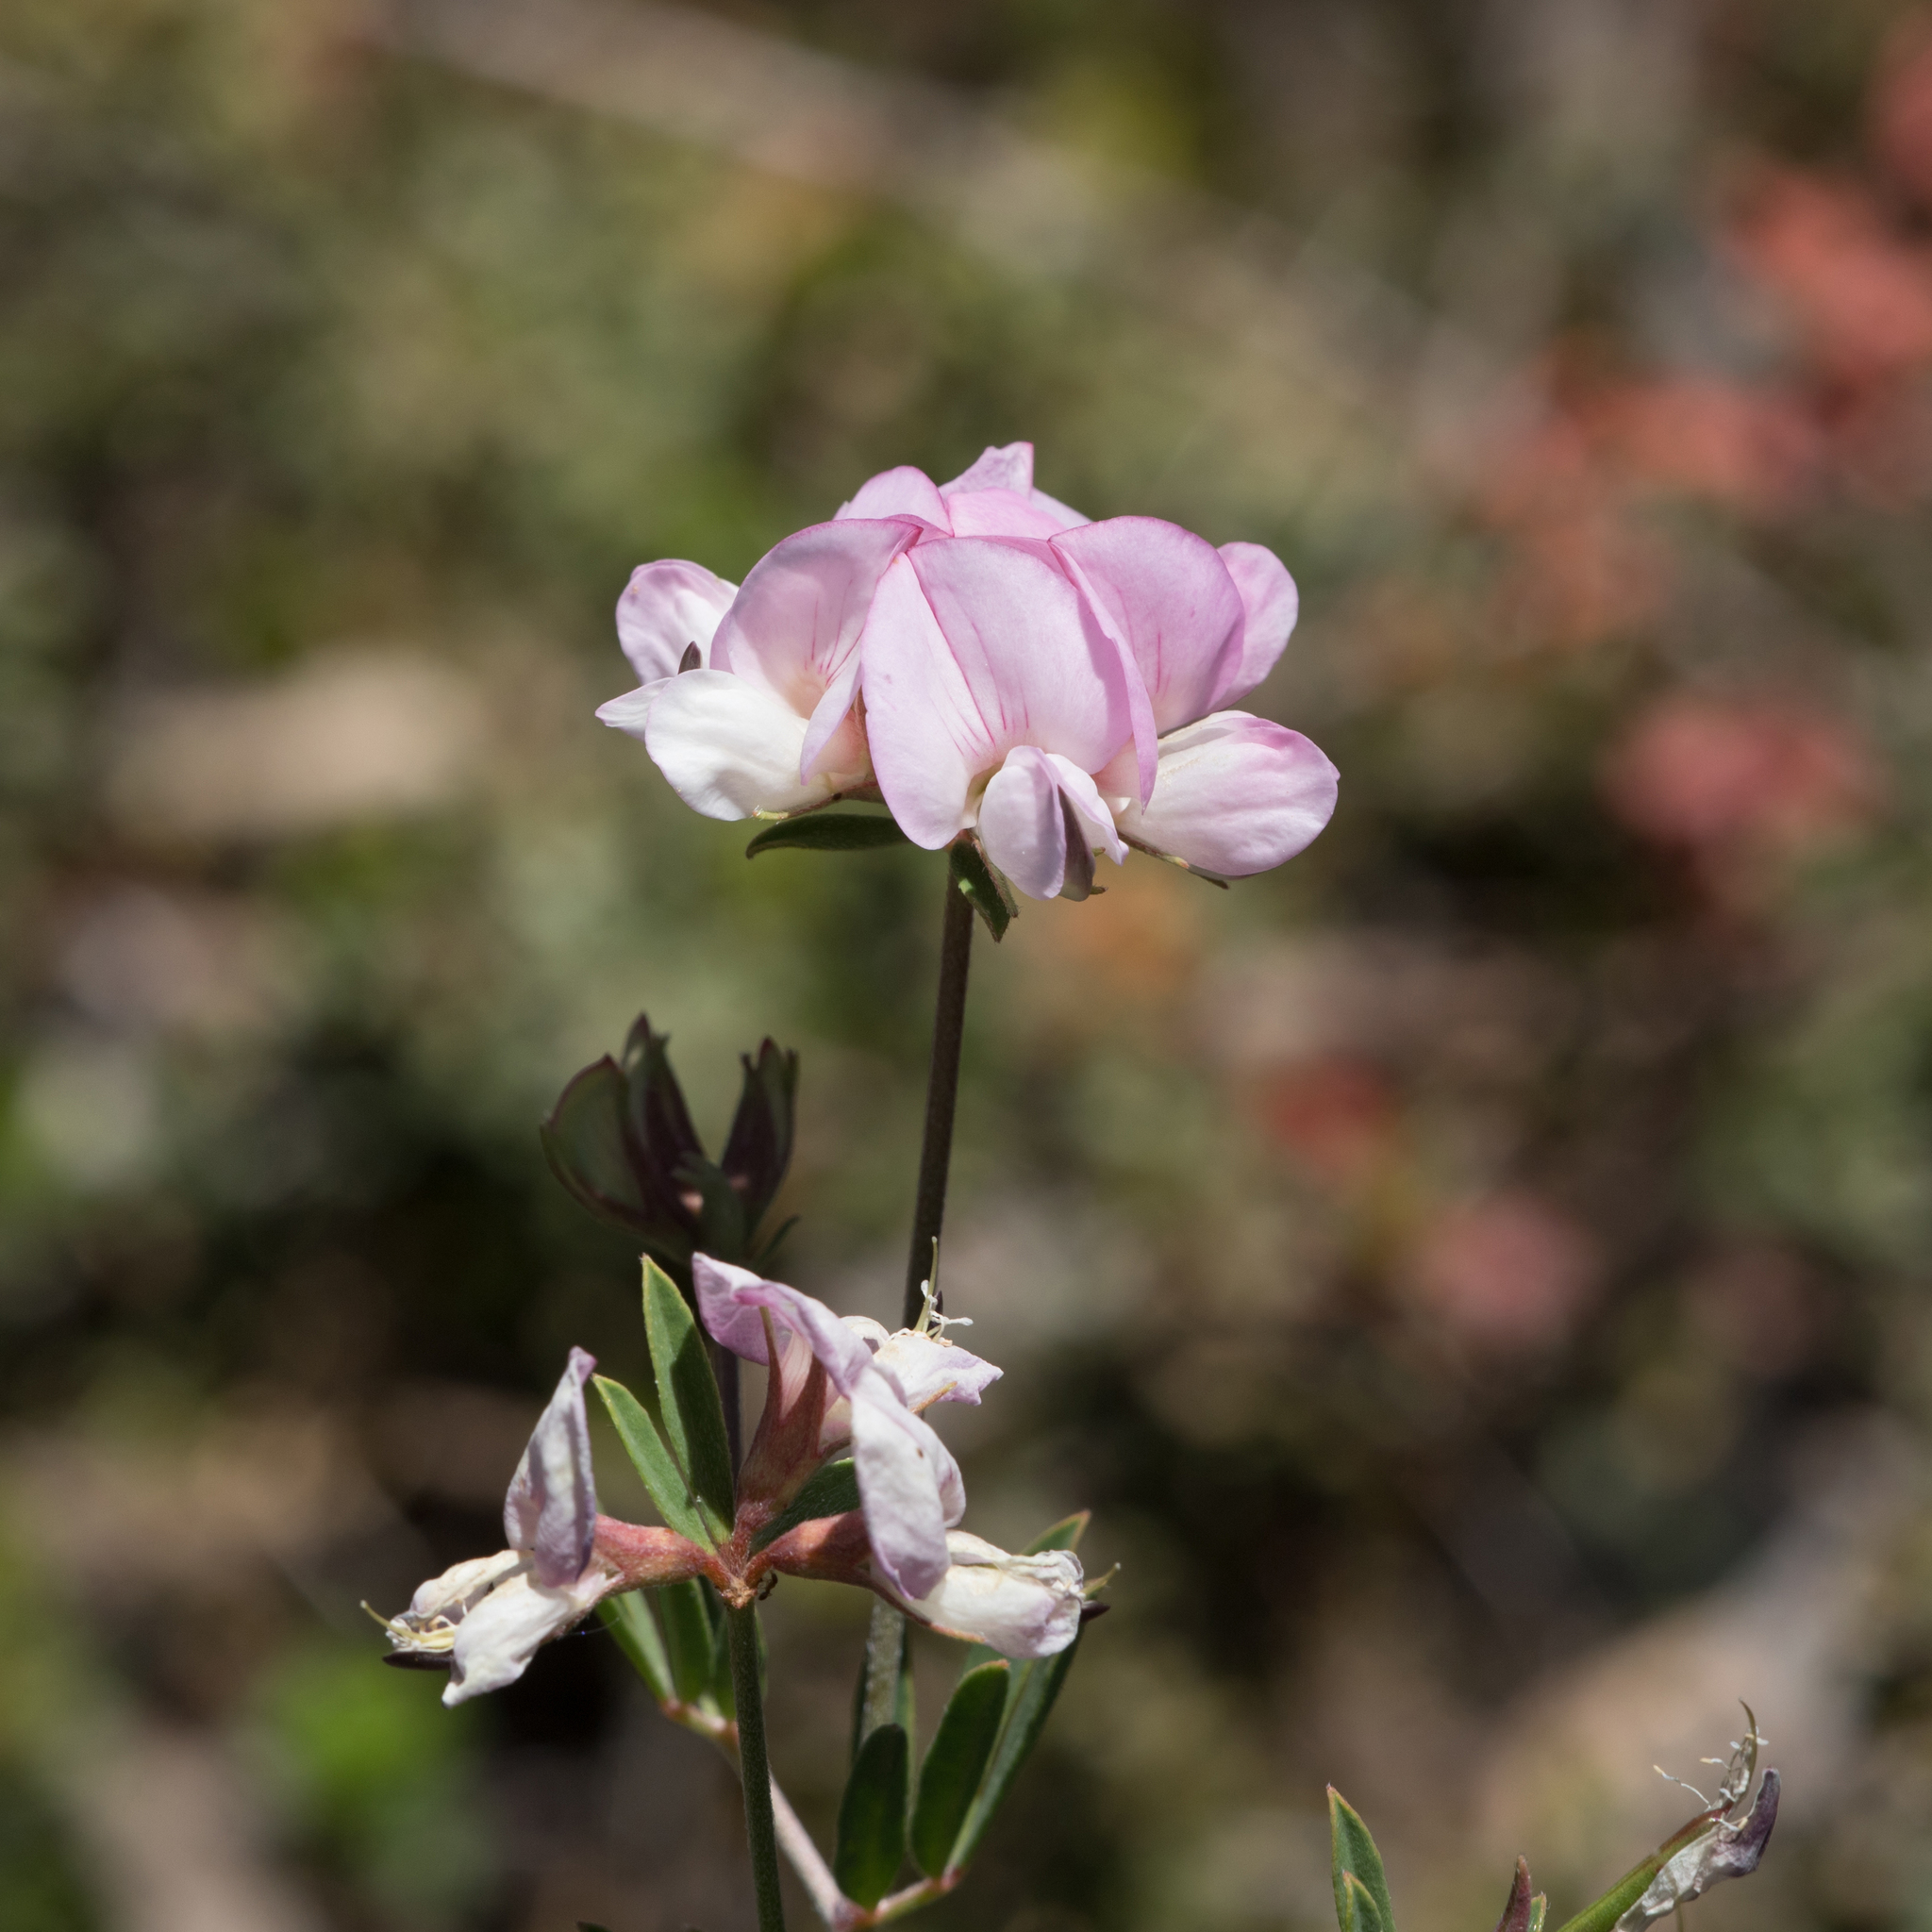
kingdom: Plantae
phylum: Tracheophyta
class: Magnoliopsida
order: Fabales
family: Fabaceae
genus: Lotus
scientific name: Lotus australis
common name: Australian trefoil
